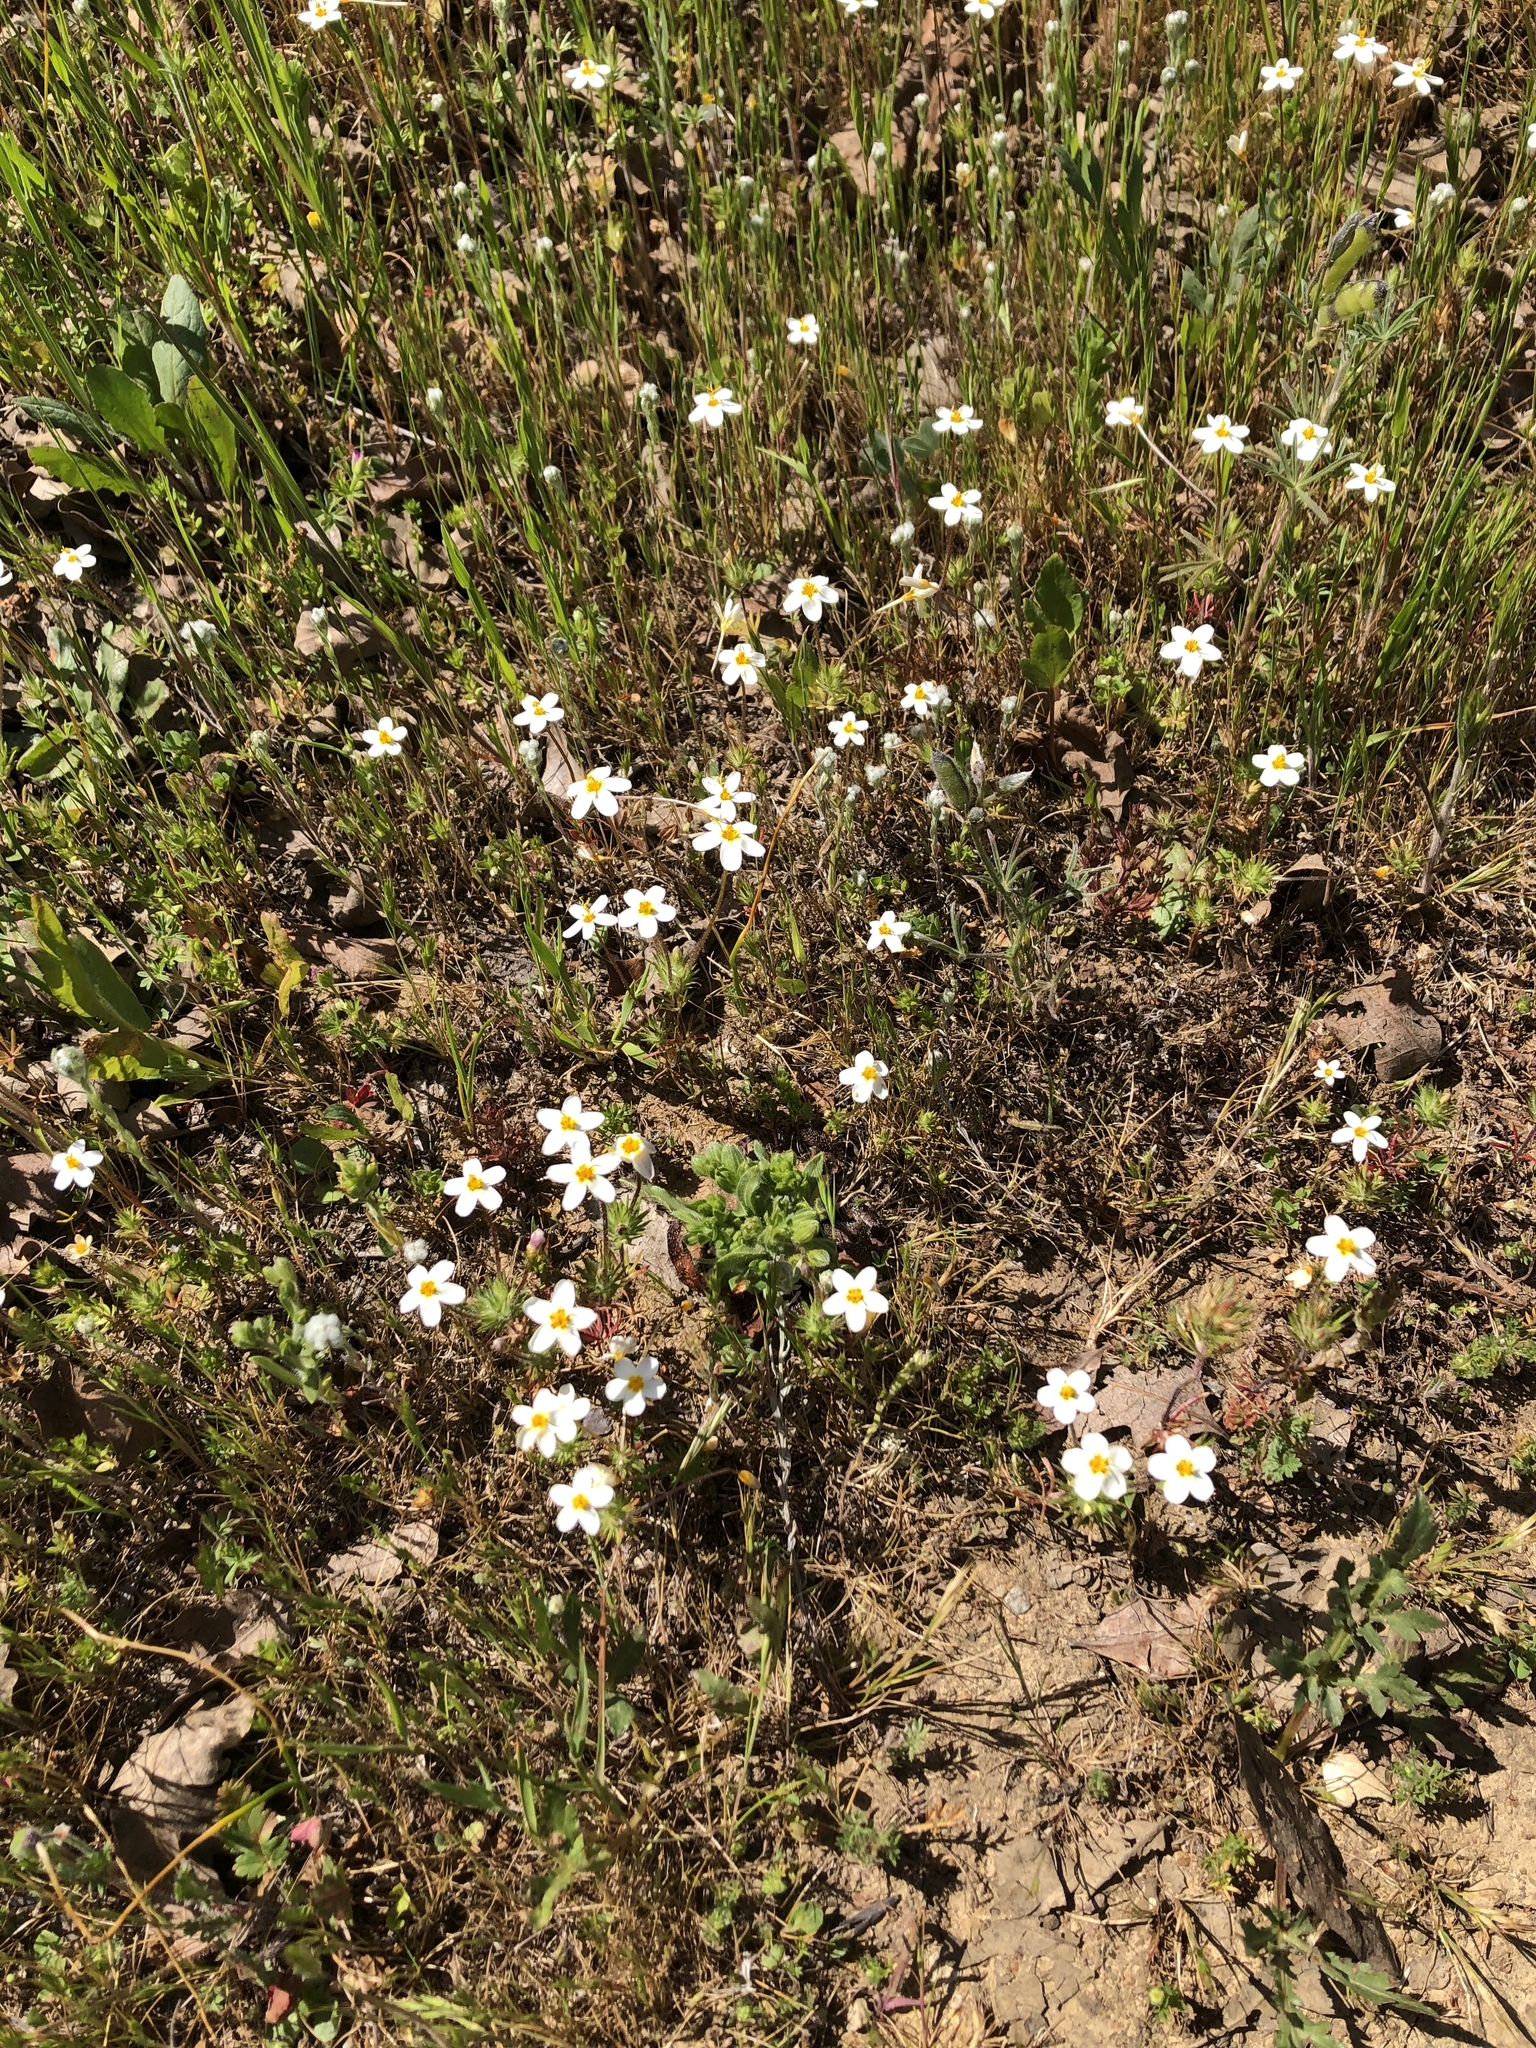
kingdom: Plantae
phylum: Tracheophyta
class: Magnoliopsida
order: Ericales
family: Polemoniaceae
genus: Leptosiphon
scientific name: Leptosiphon parviflorus
